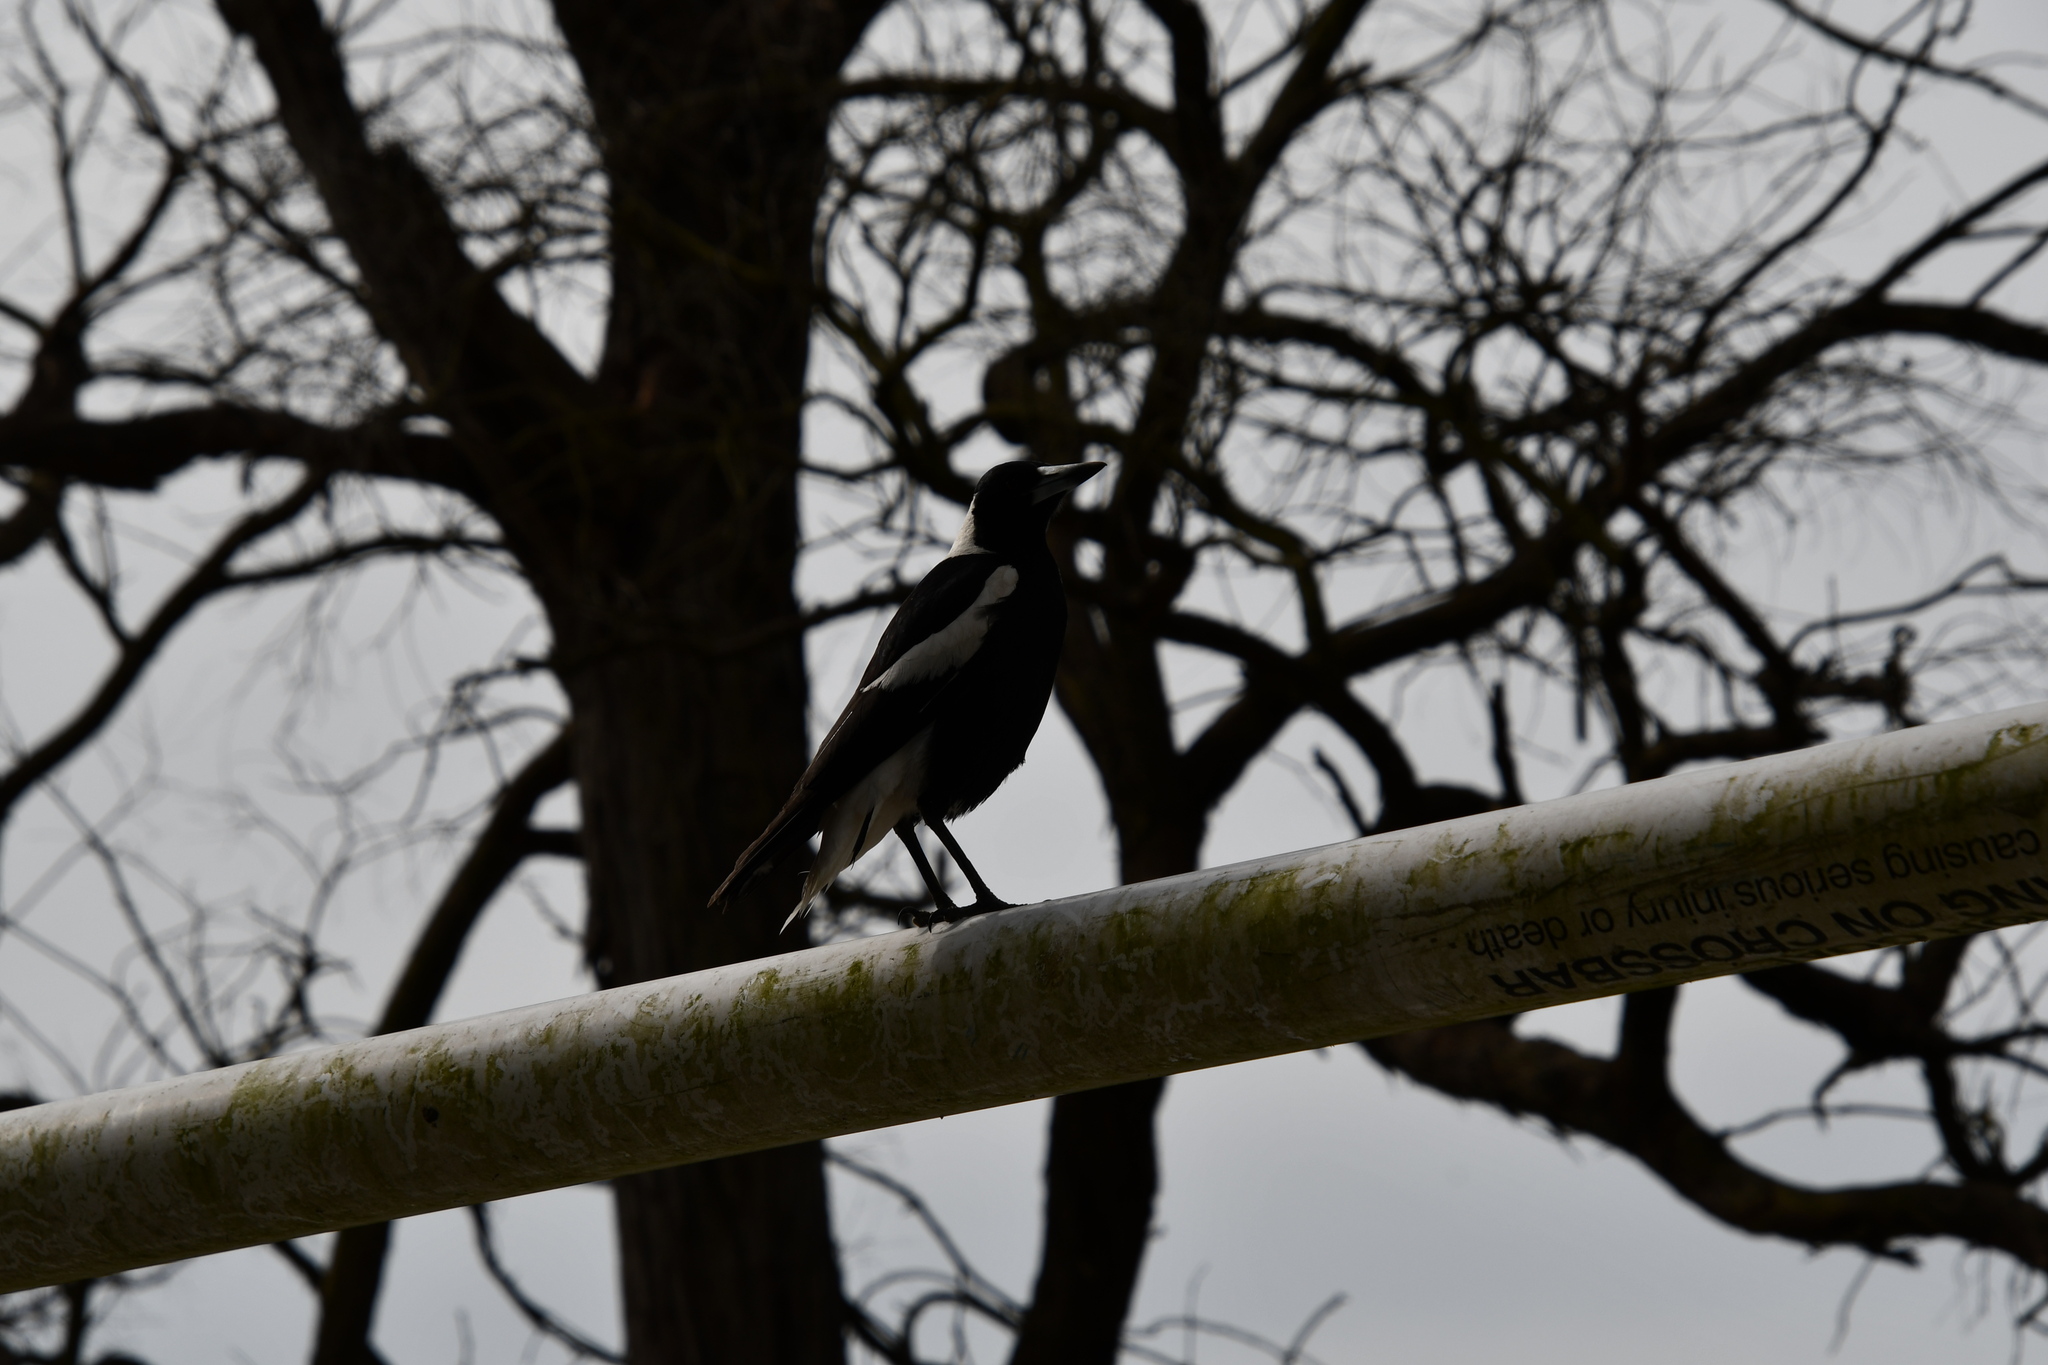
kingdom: Animalia
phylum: Chordata
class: Aves
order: Passeriformes
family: Cracticidae
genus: Gymnorhina
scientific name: Gymnorhina tibicen
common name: Australian magpie
